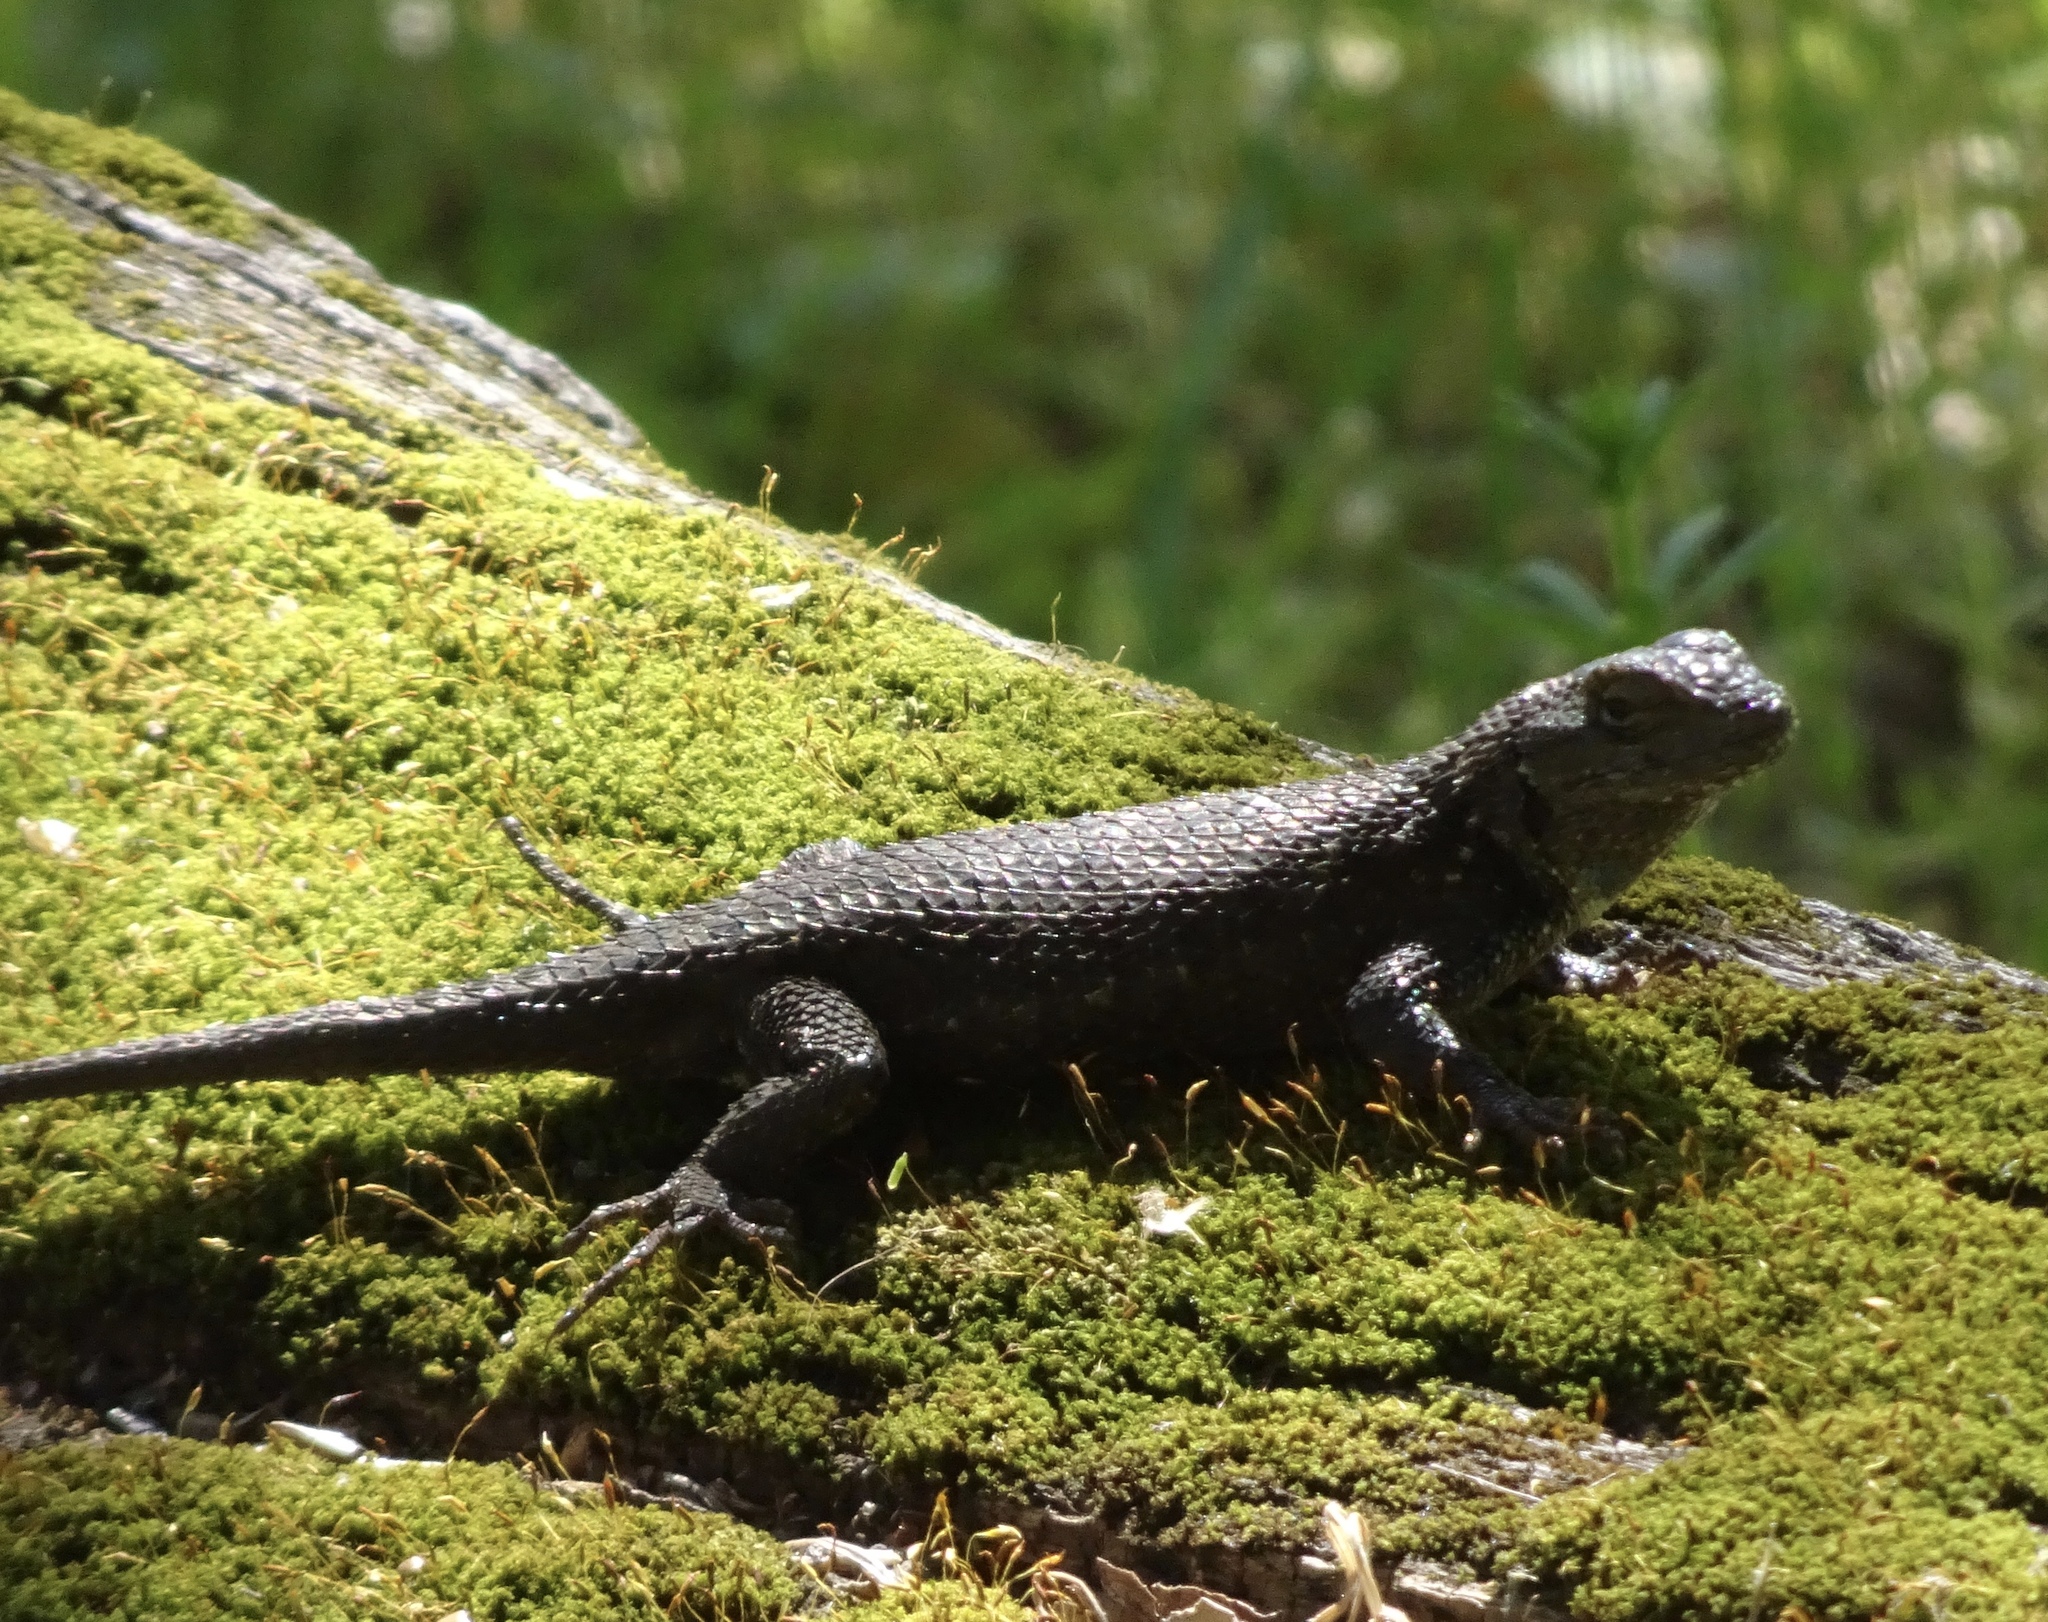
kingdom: Animalia
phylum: Chordata
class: Squamata
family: Phrynosomatidae
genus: Sceloporus
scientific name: Sceloporus occidentalis
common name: Western fence lizard
